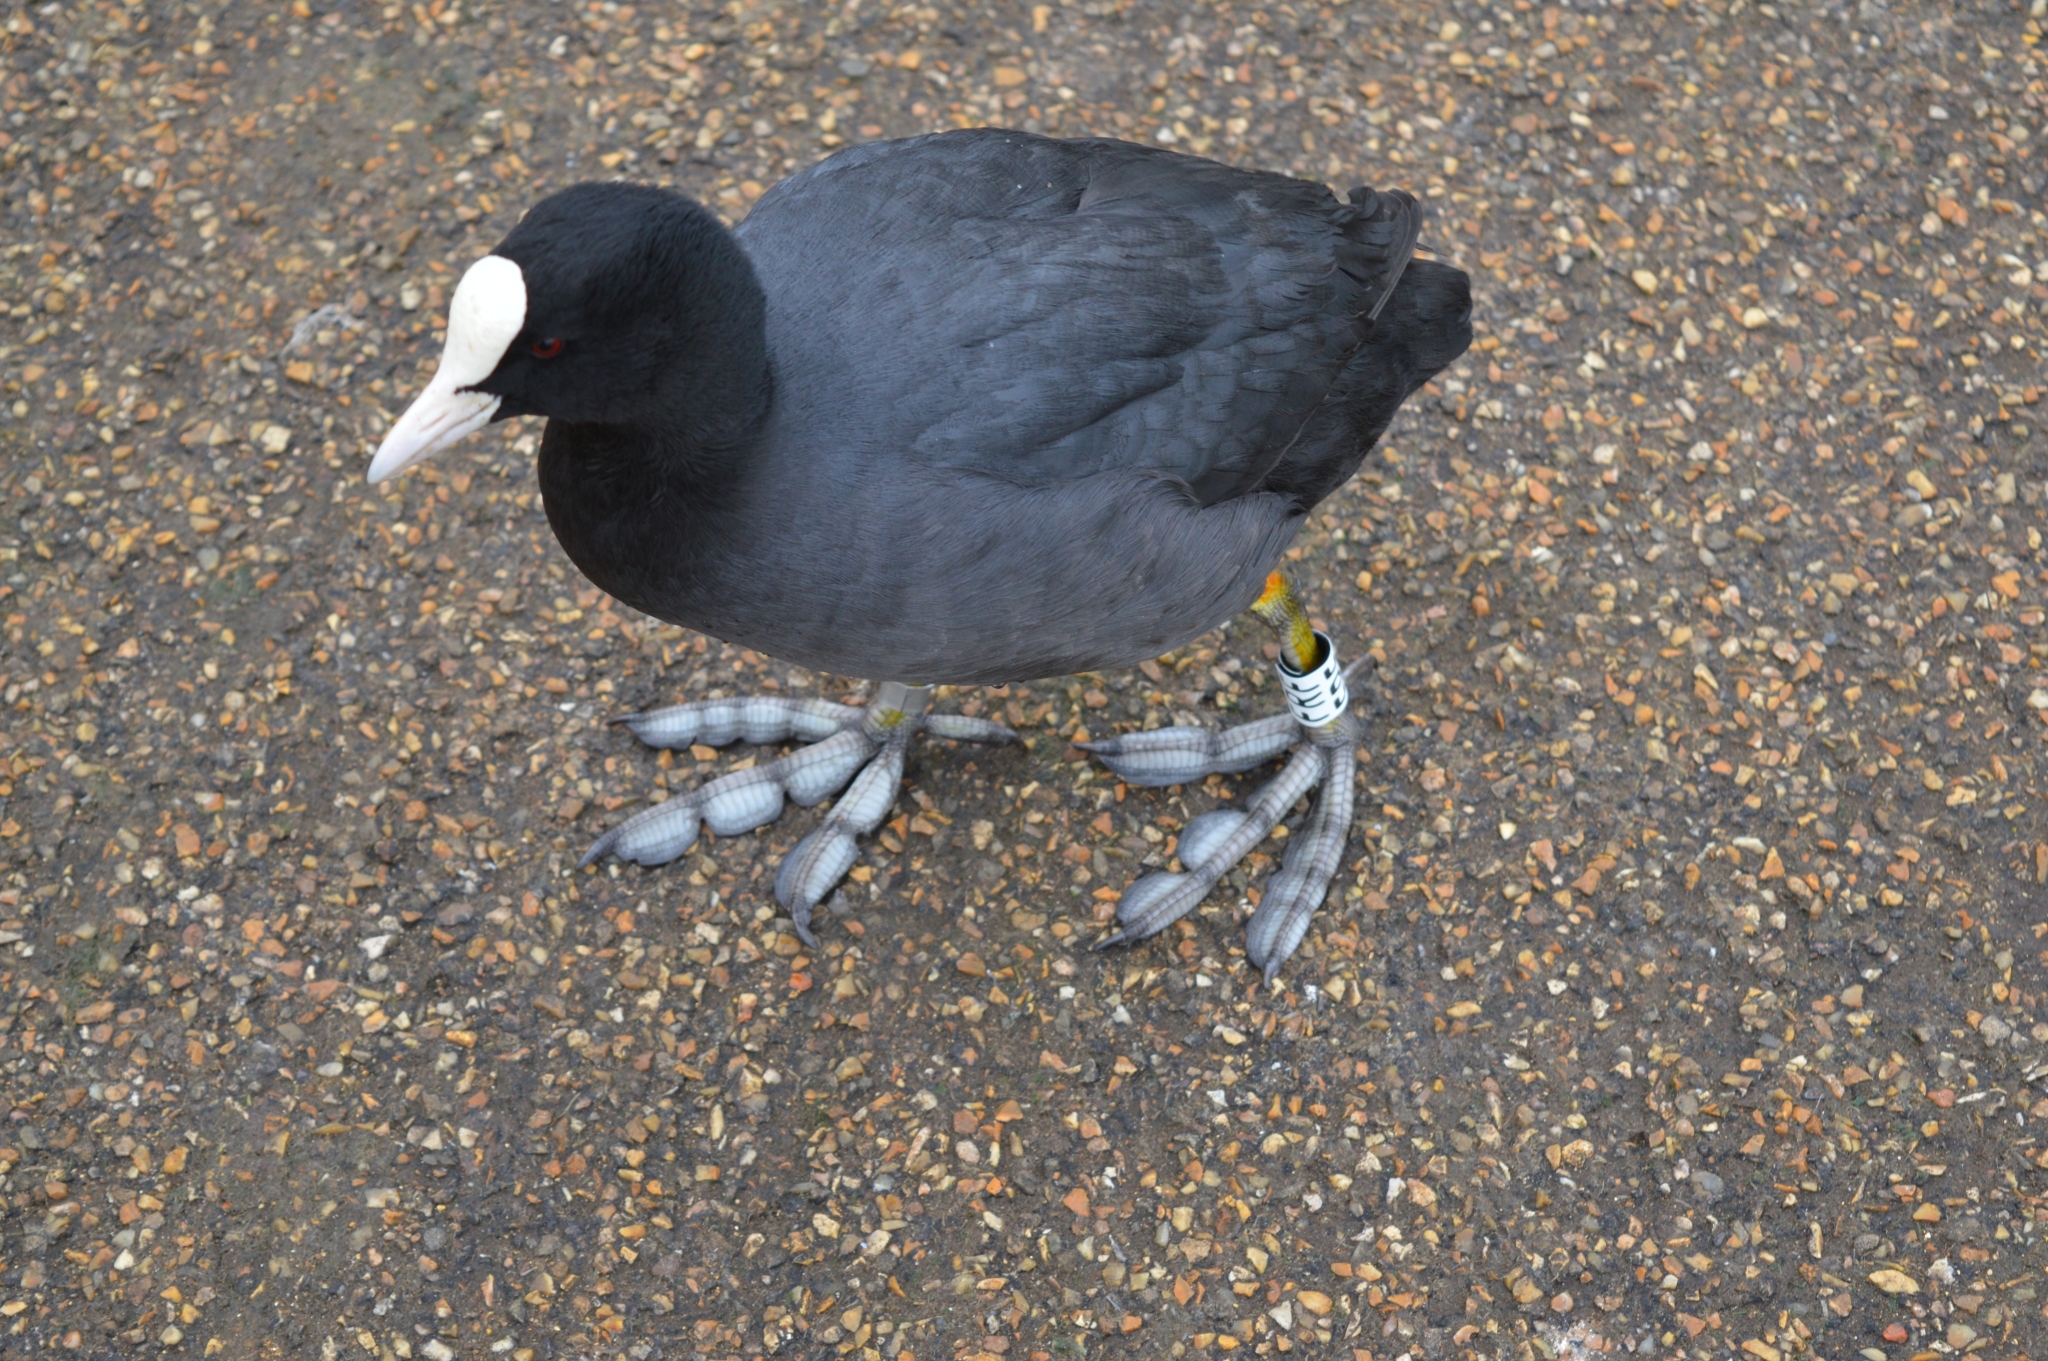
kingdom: Animalia
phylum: Chordata
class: Aves
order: Gruiformes
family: Rallidae
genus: Fulica
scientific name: Fulica atra
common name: Eurasian coot
